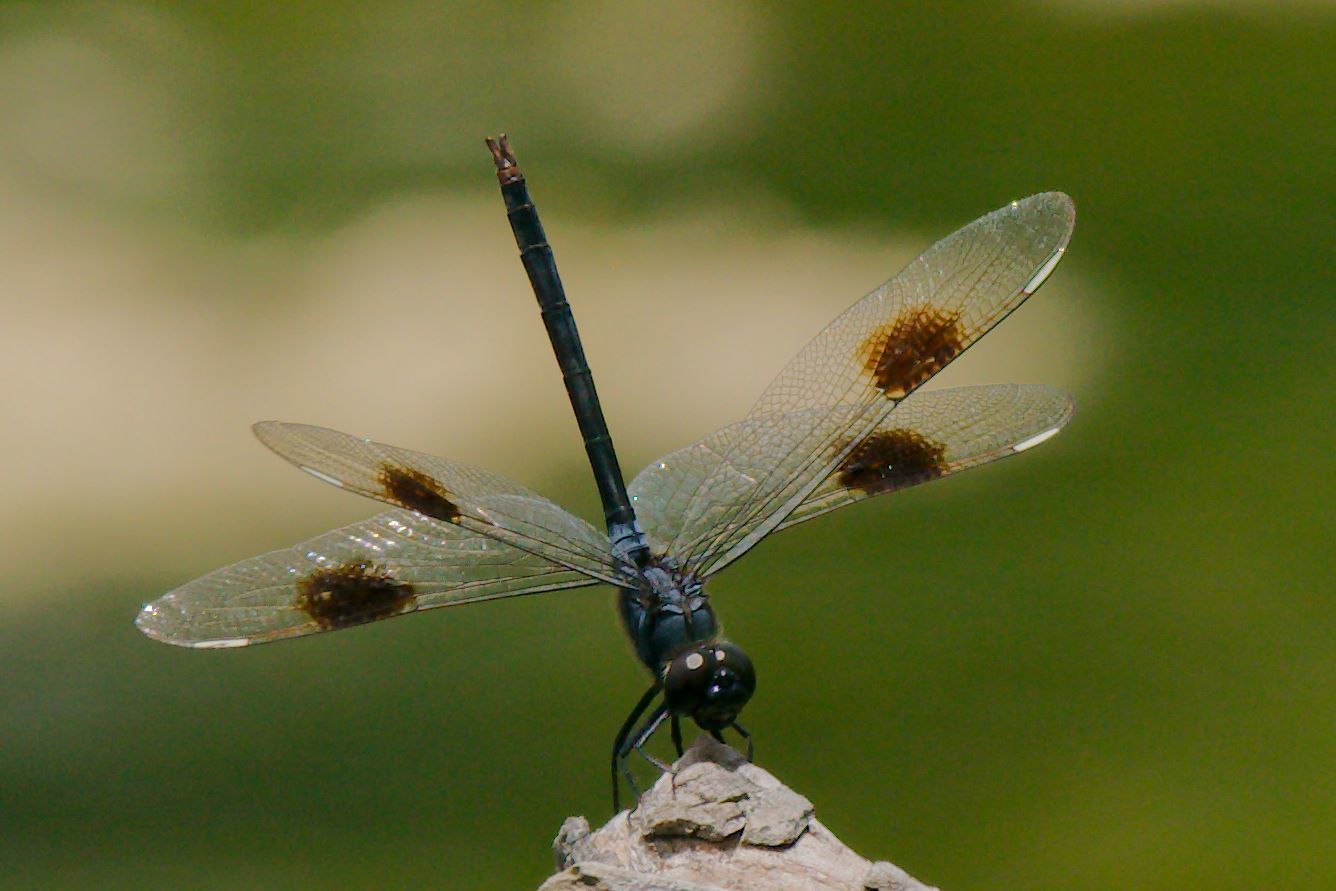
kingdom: Animalia
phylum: Arthropoda
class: Insecta
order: Odonata
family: Libellulidae
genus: Brachymesia
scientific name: Brachymesia gravida
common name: Four-spotted pennant
